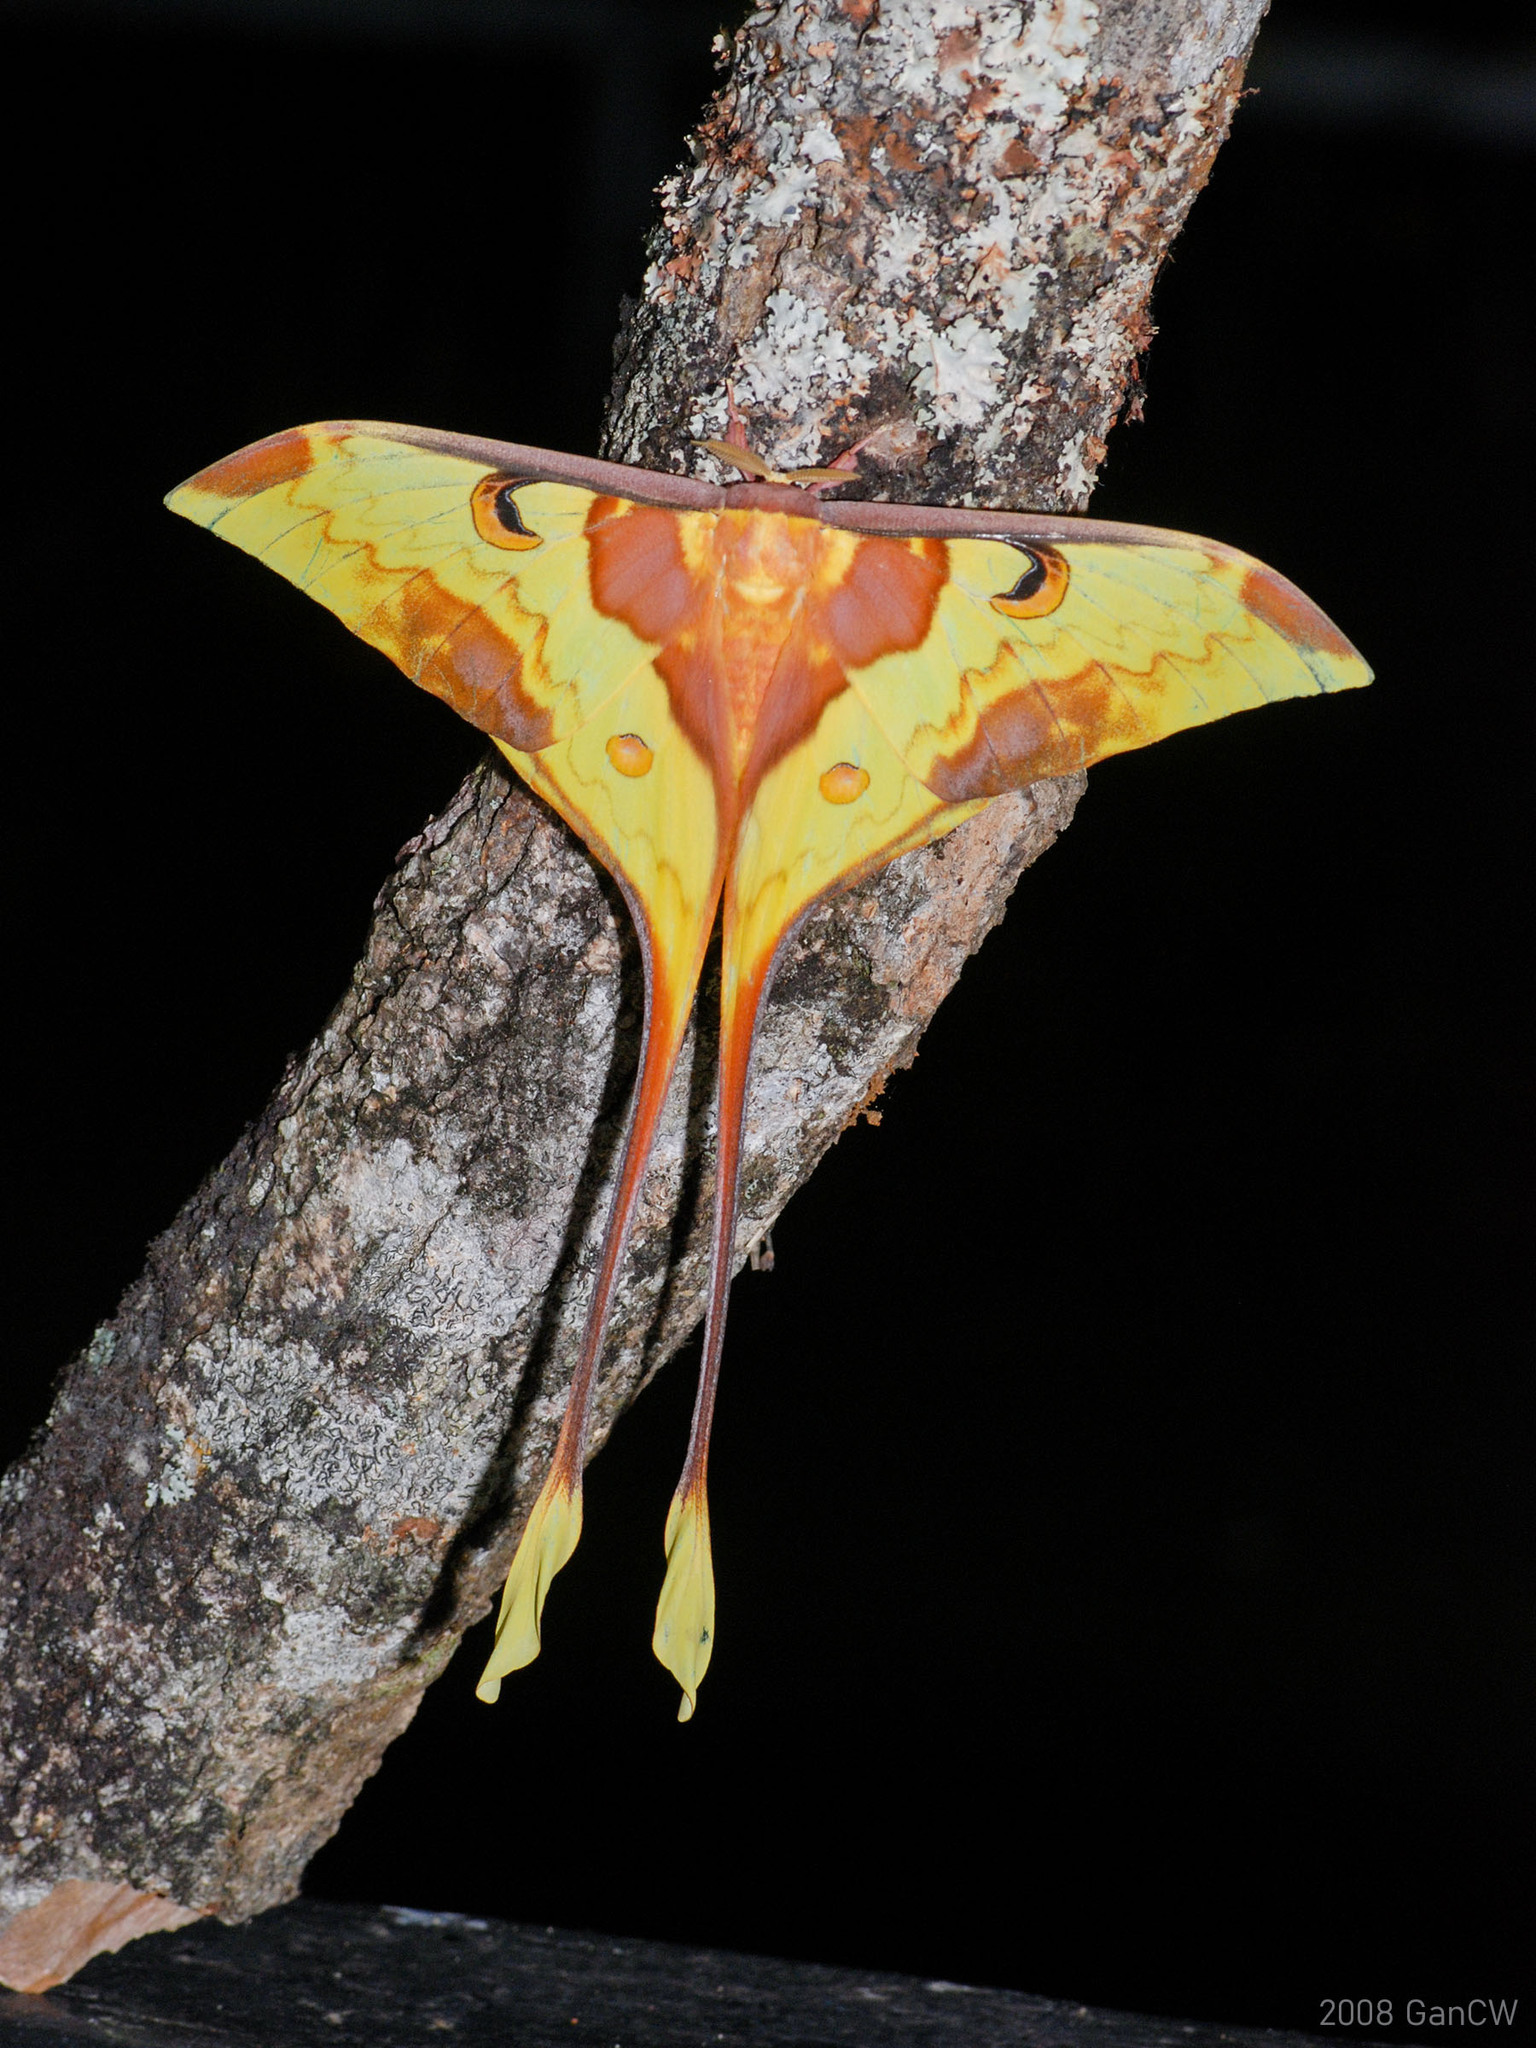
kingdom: Animalia
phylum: Arthropoda
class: Insecta
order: Lepidoptera
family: Saturniidae
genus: Actias
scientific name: Actias maenas
